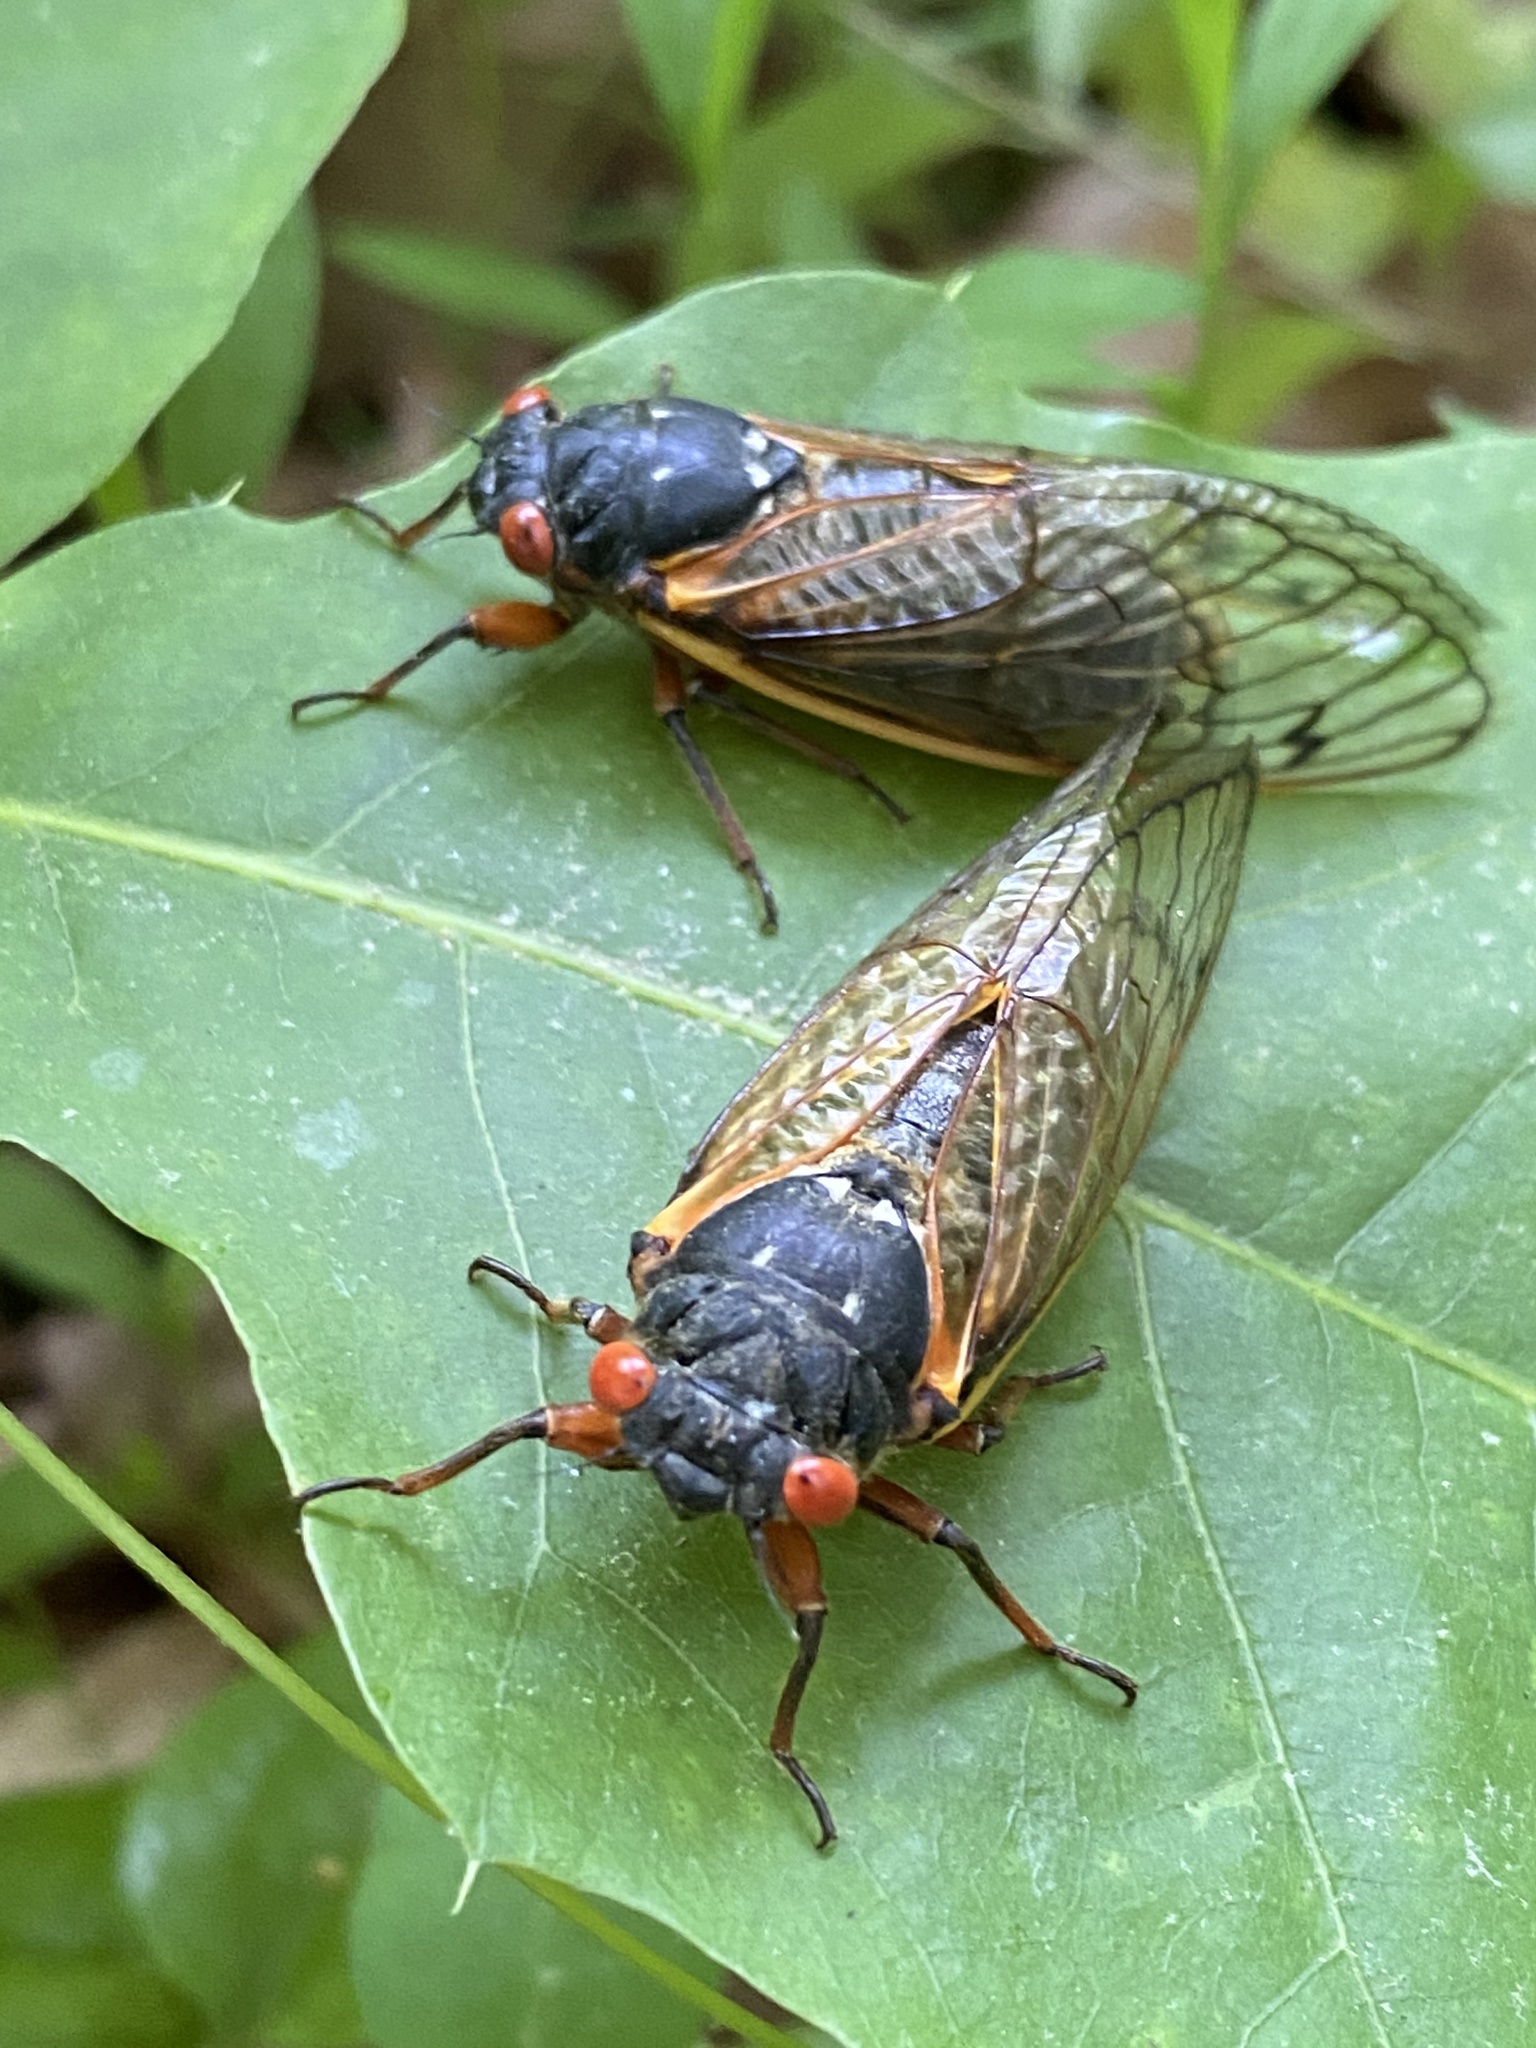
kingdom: Animalia
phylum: Arthropoda
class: Insecta
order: Hemiptera
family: Cicadidae
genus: Magicicada
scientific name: Magicicada septendecim
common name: Periodical cicada
